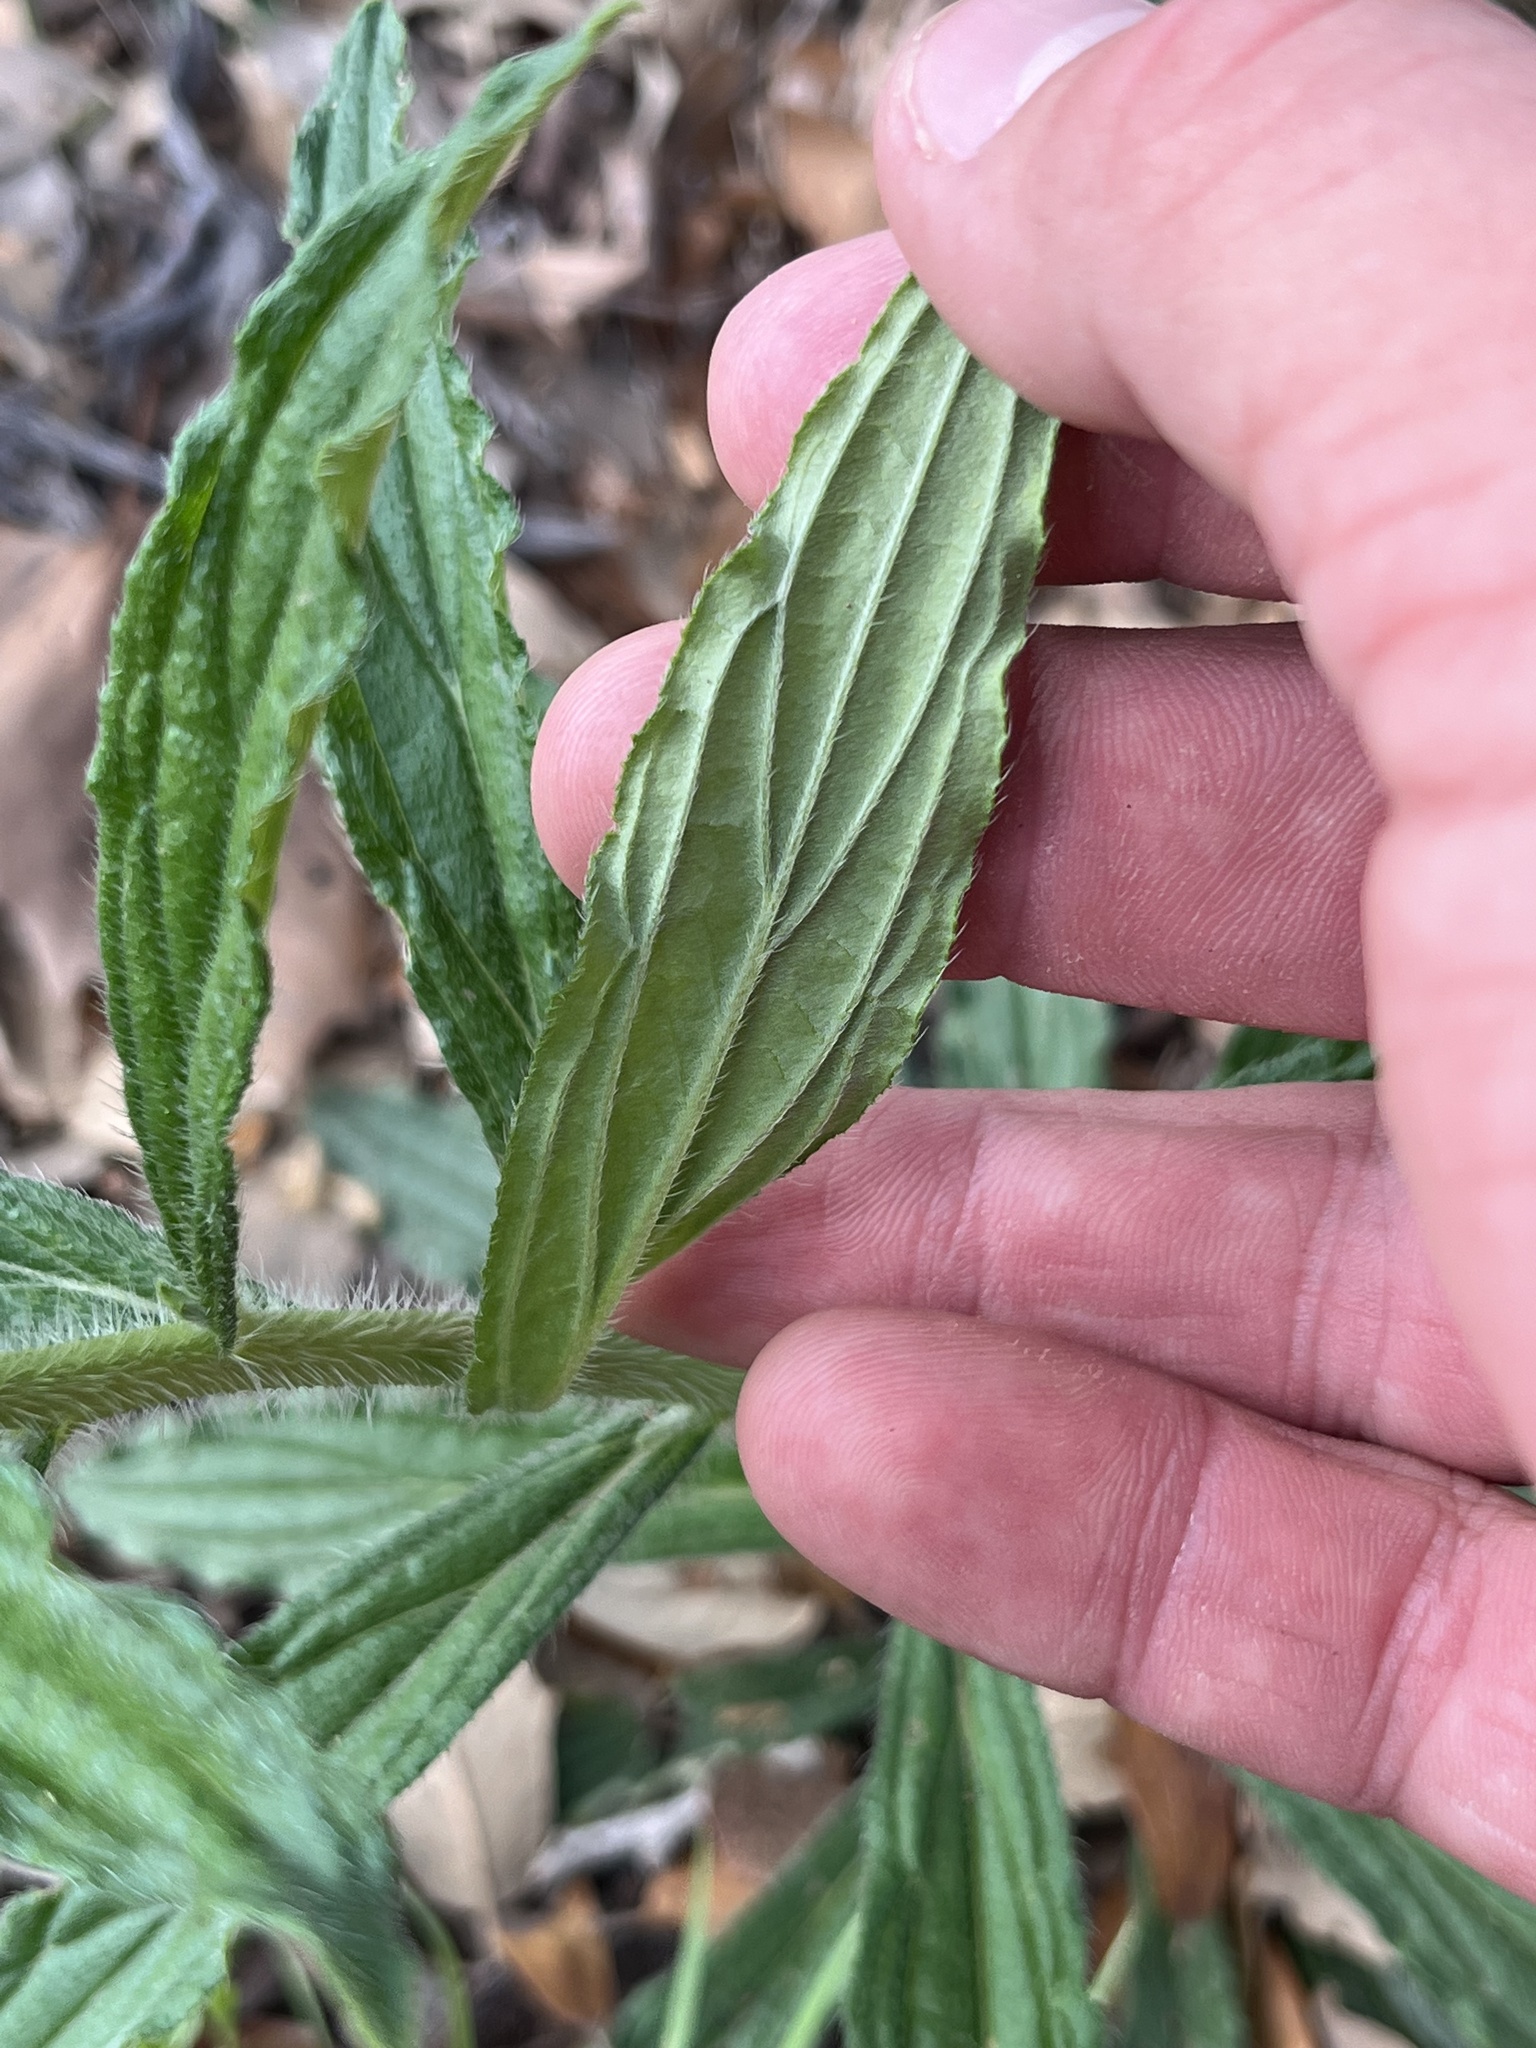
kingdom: Plantae
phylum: Tracheophyta
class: Magnoliopsida
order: Boraginales
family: Boraginaceae
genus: Lithospermum
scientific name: Lithospermum caroliniense
